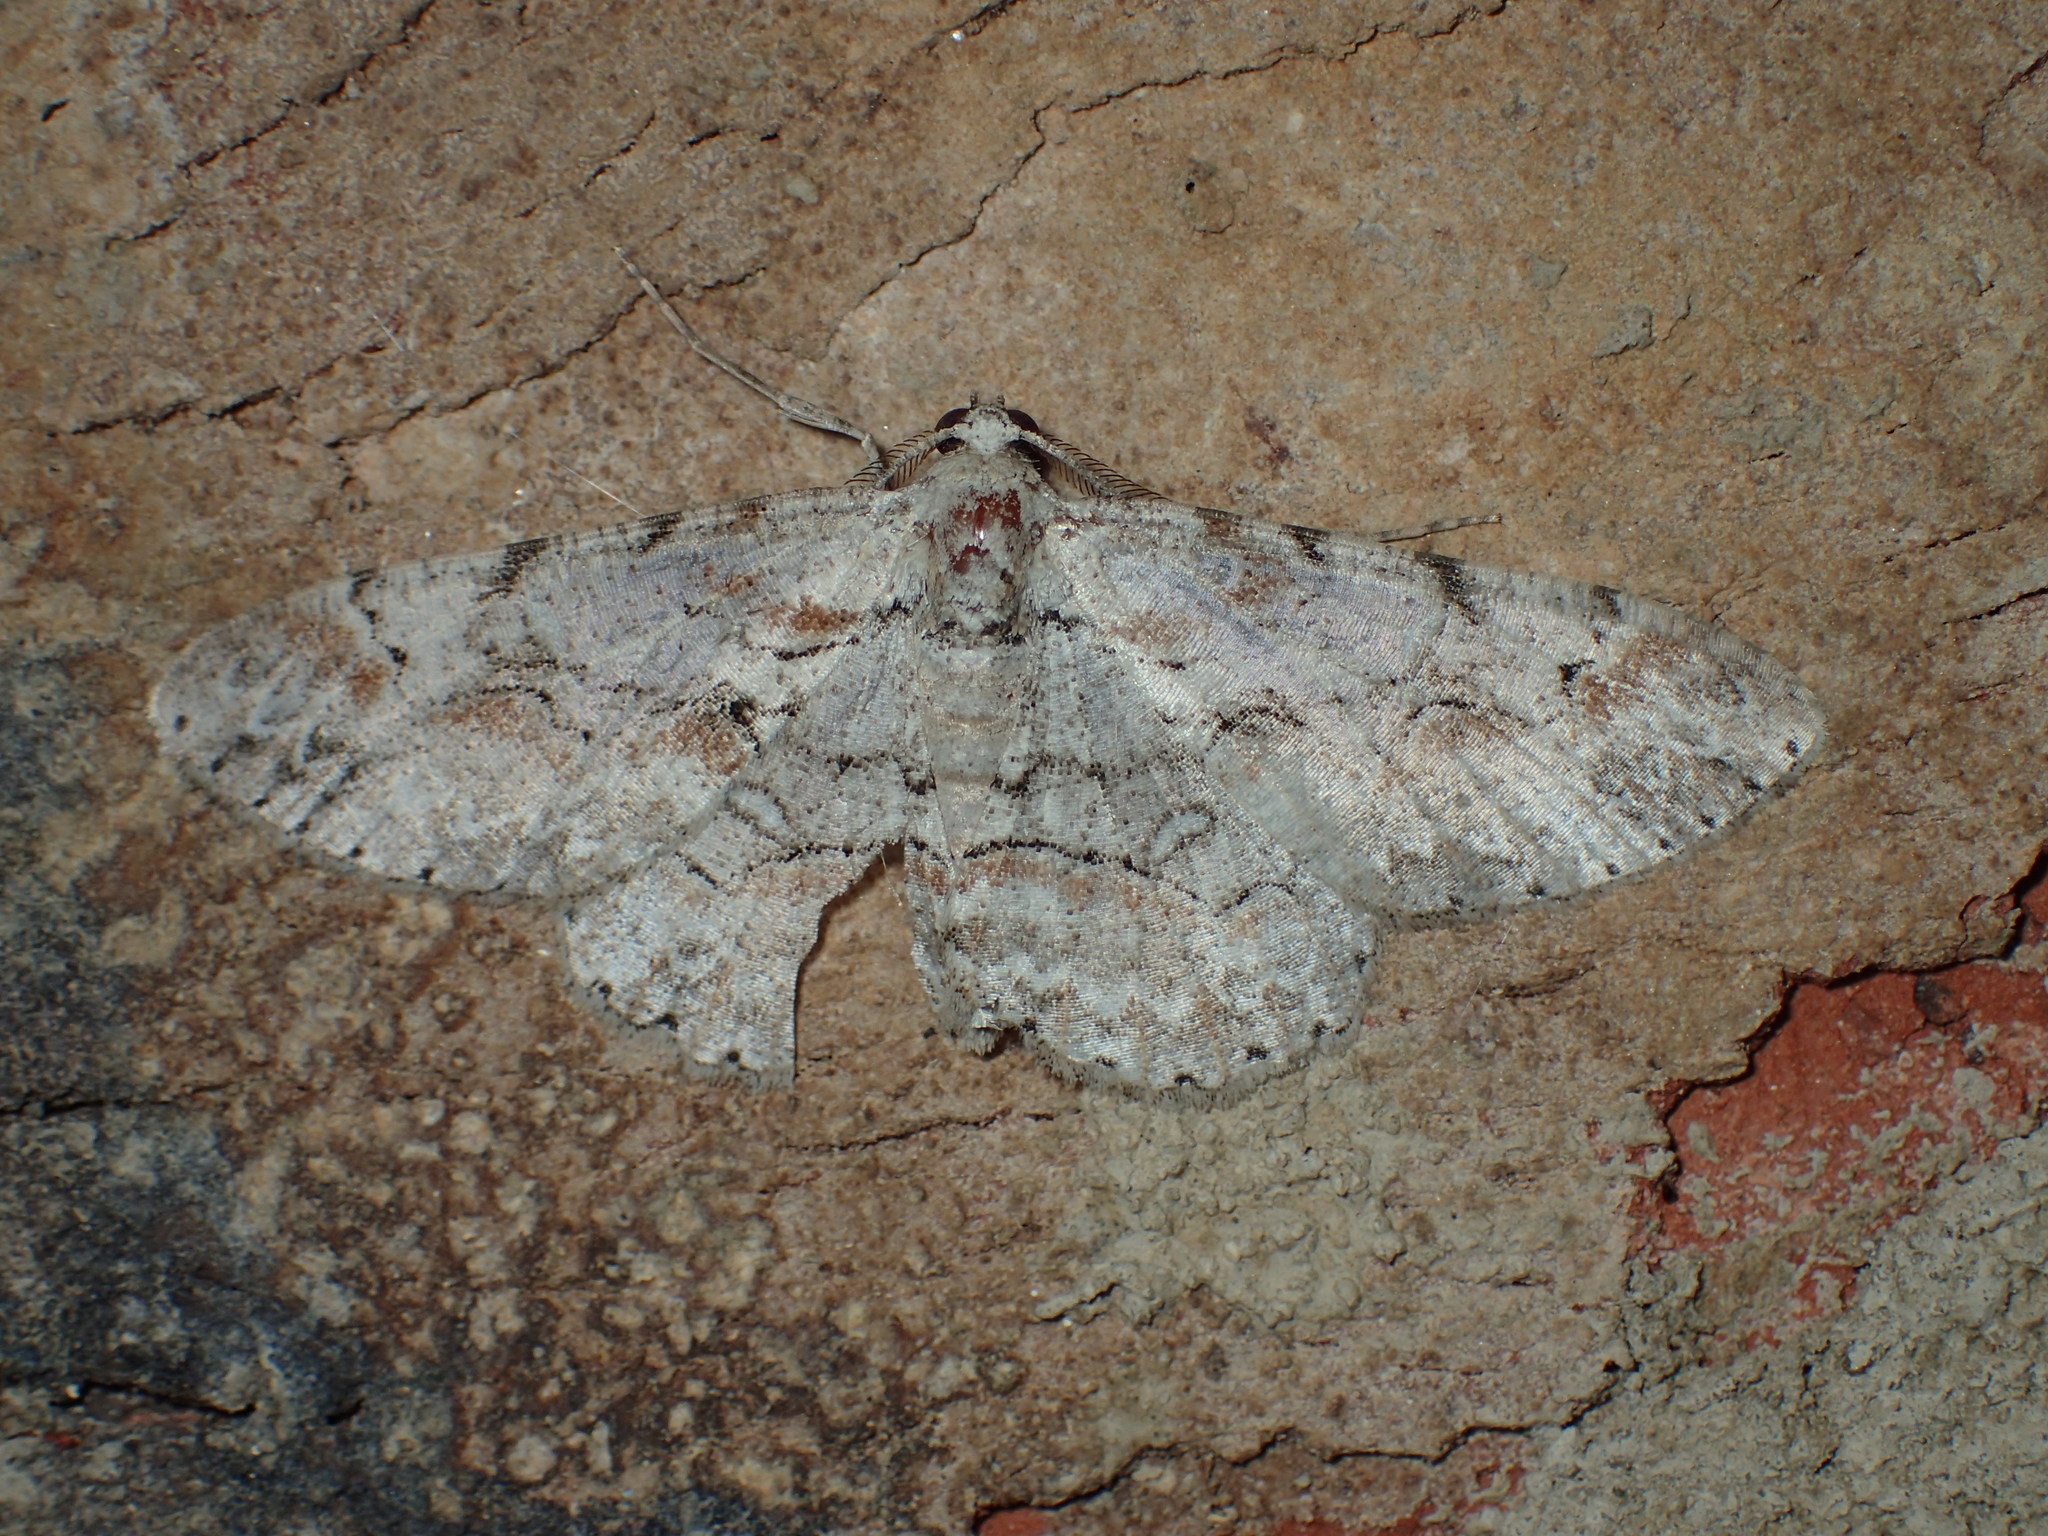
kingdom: Animalia
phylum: Arthropoda
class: Insecta
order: Lepidoptera
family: Geometridae
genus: Iridopsis
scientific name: Iridopsis defectaria
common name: Brown-shaded gray
